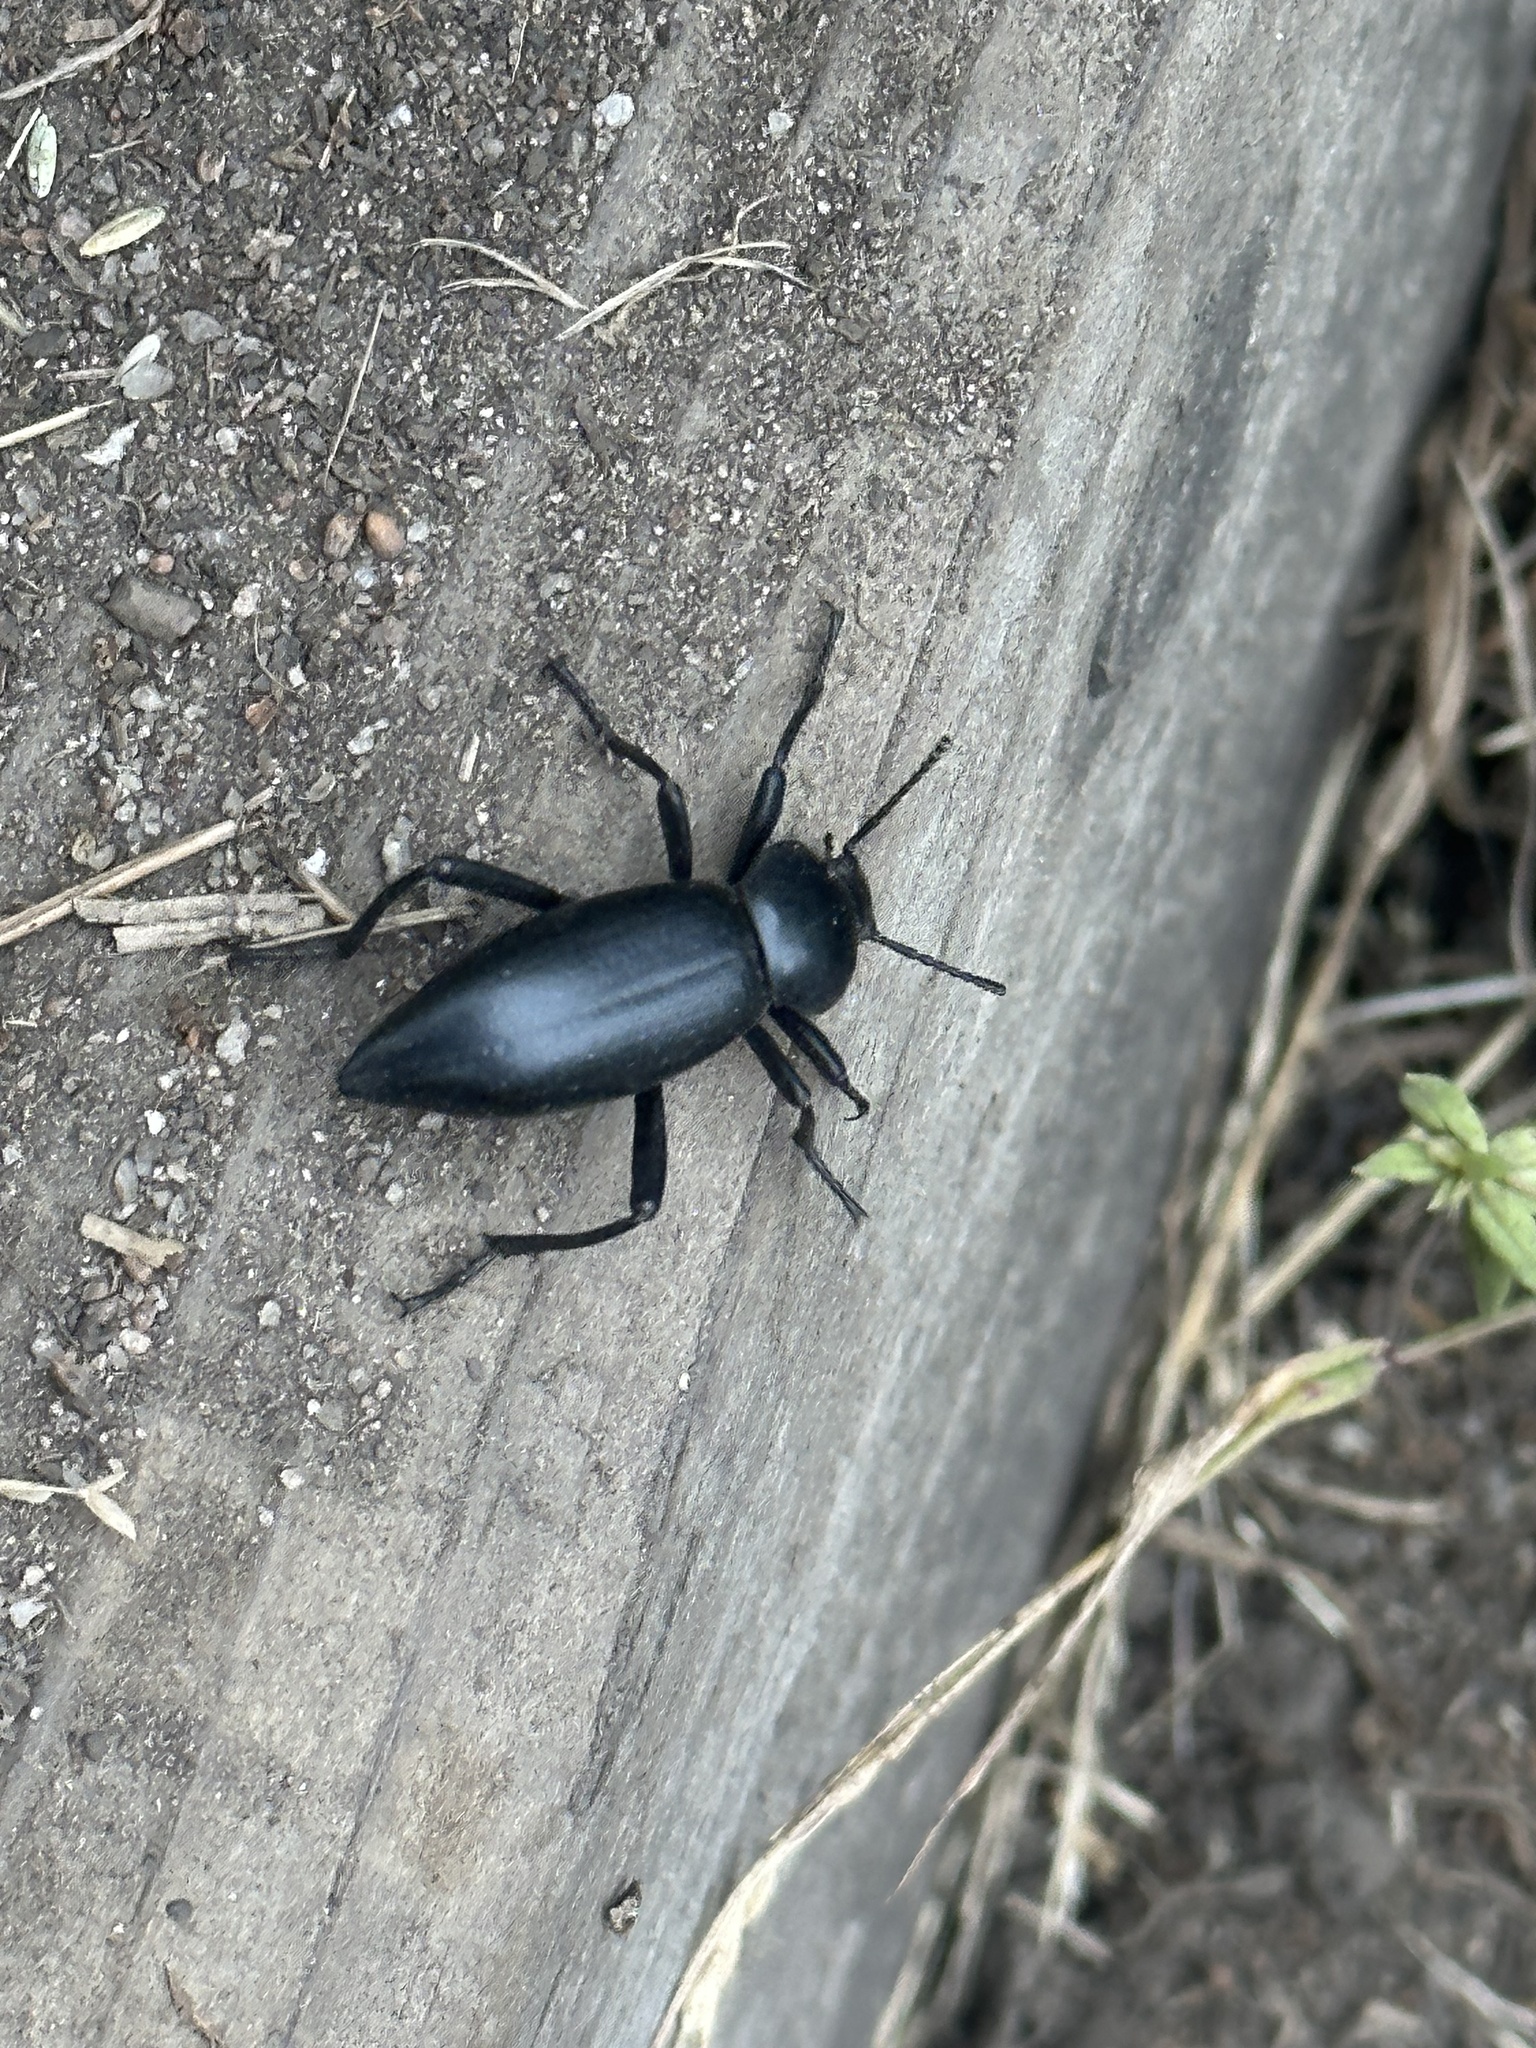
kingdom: Animalia
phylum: Arthropoda
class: Insecta
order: Coleoptera
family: Tenebrionidae
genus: Eleodes
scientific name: Eleodes acuticauda
